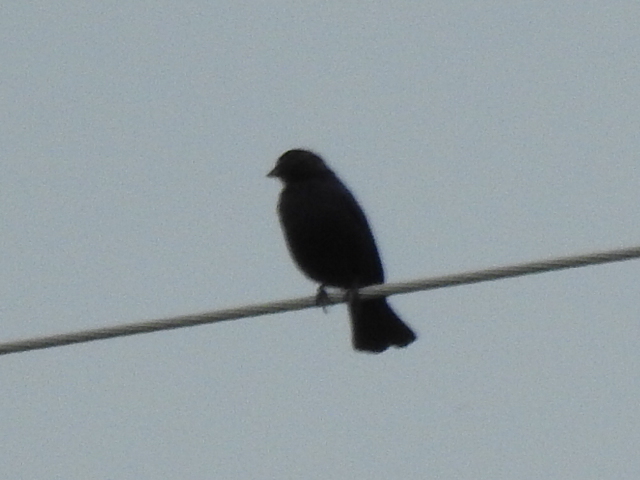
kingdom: Animalia
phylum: Chordata
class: Aves
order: Passeriformes
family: Icteridae
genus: Molothrus
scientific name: Molothrus ater
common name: Brown-headed cowbird
